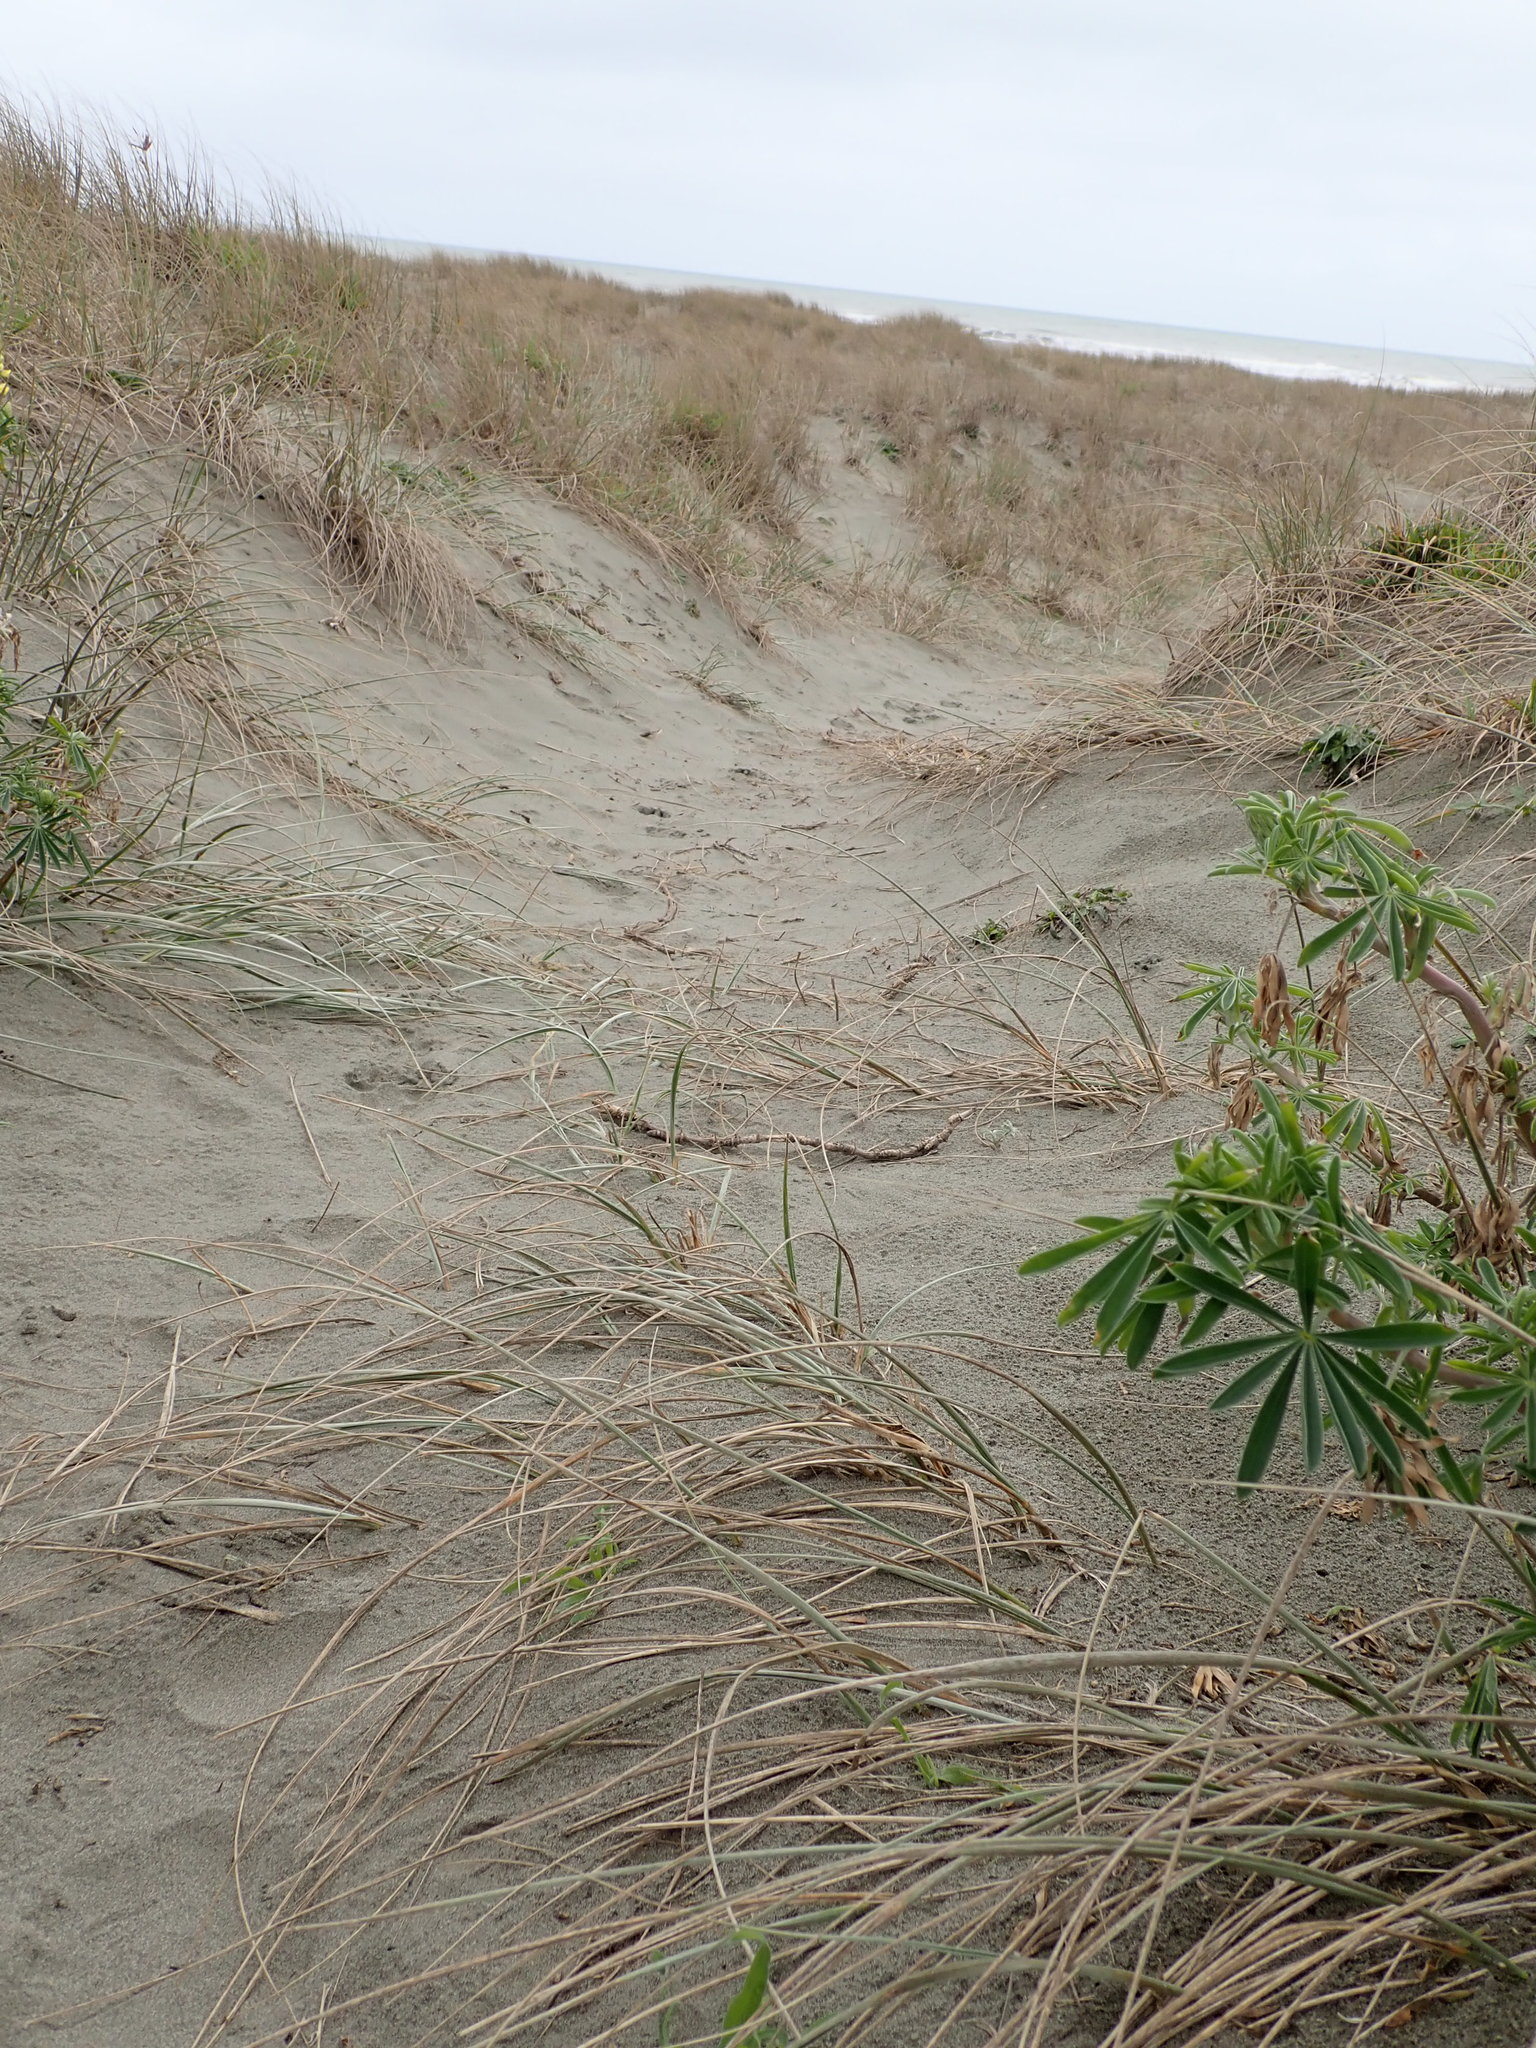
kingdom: Animalia
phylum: Arthropoda
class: Arachnida
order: Araneae
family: Lycosidae
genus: Anoteropsis
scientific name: Anoteropsis litoralis
